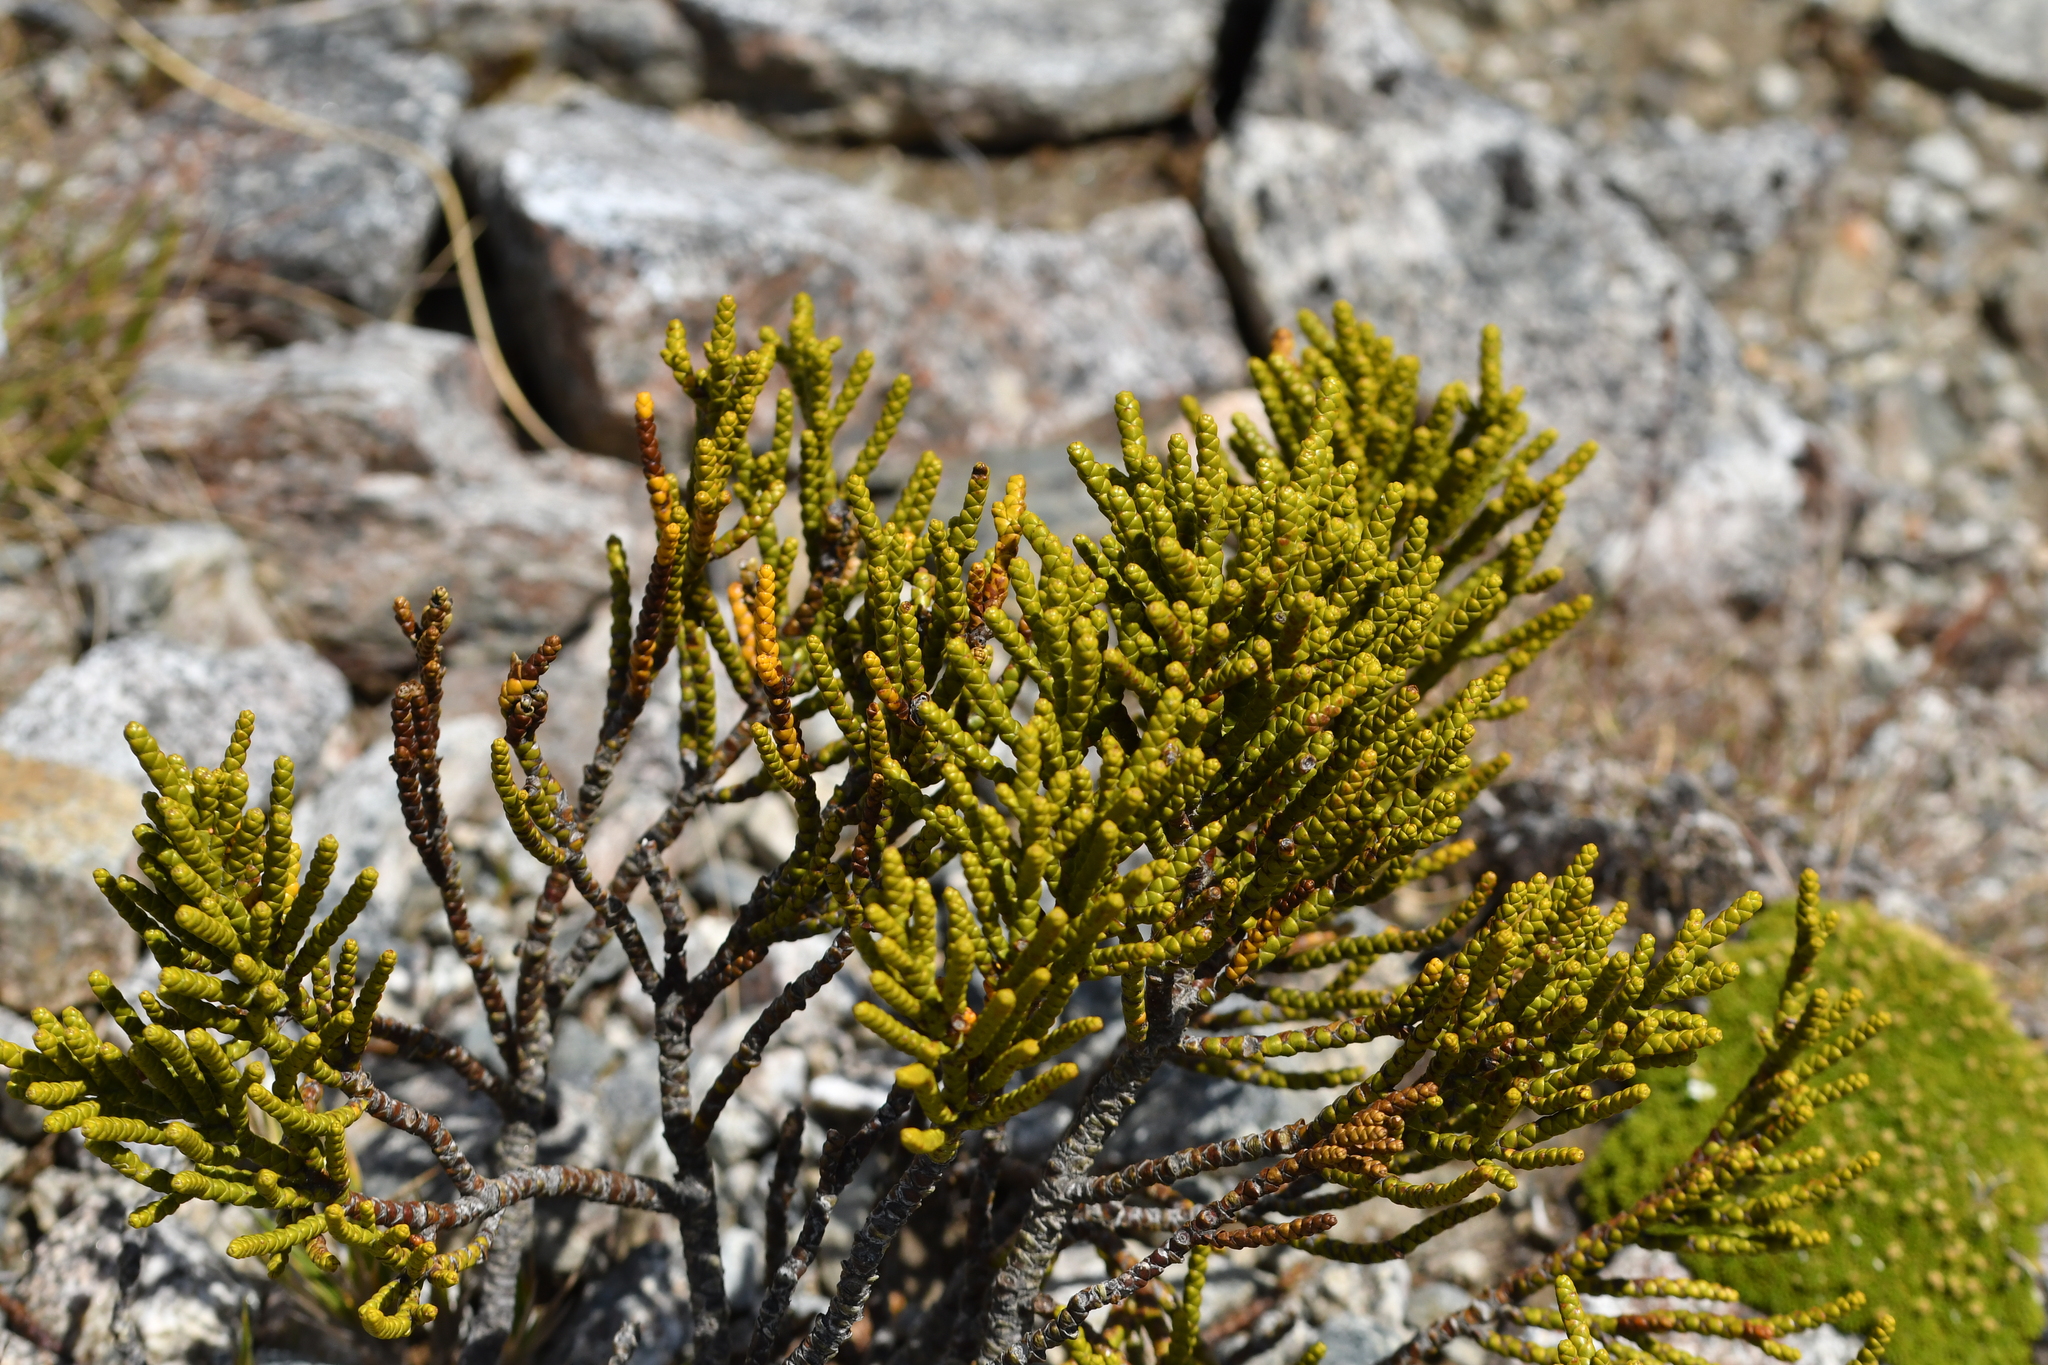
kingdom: Plantae
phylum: Tracheophyta
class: Magnoliopsida
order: Lamiales
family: Plantaginaceae
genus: Veronica
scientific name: Veronica hectorii
